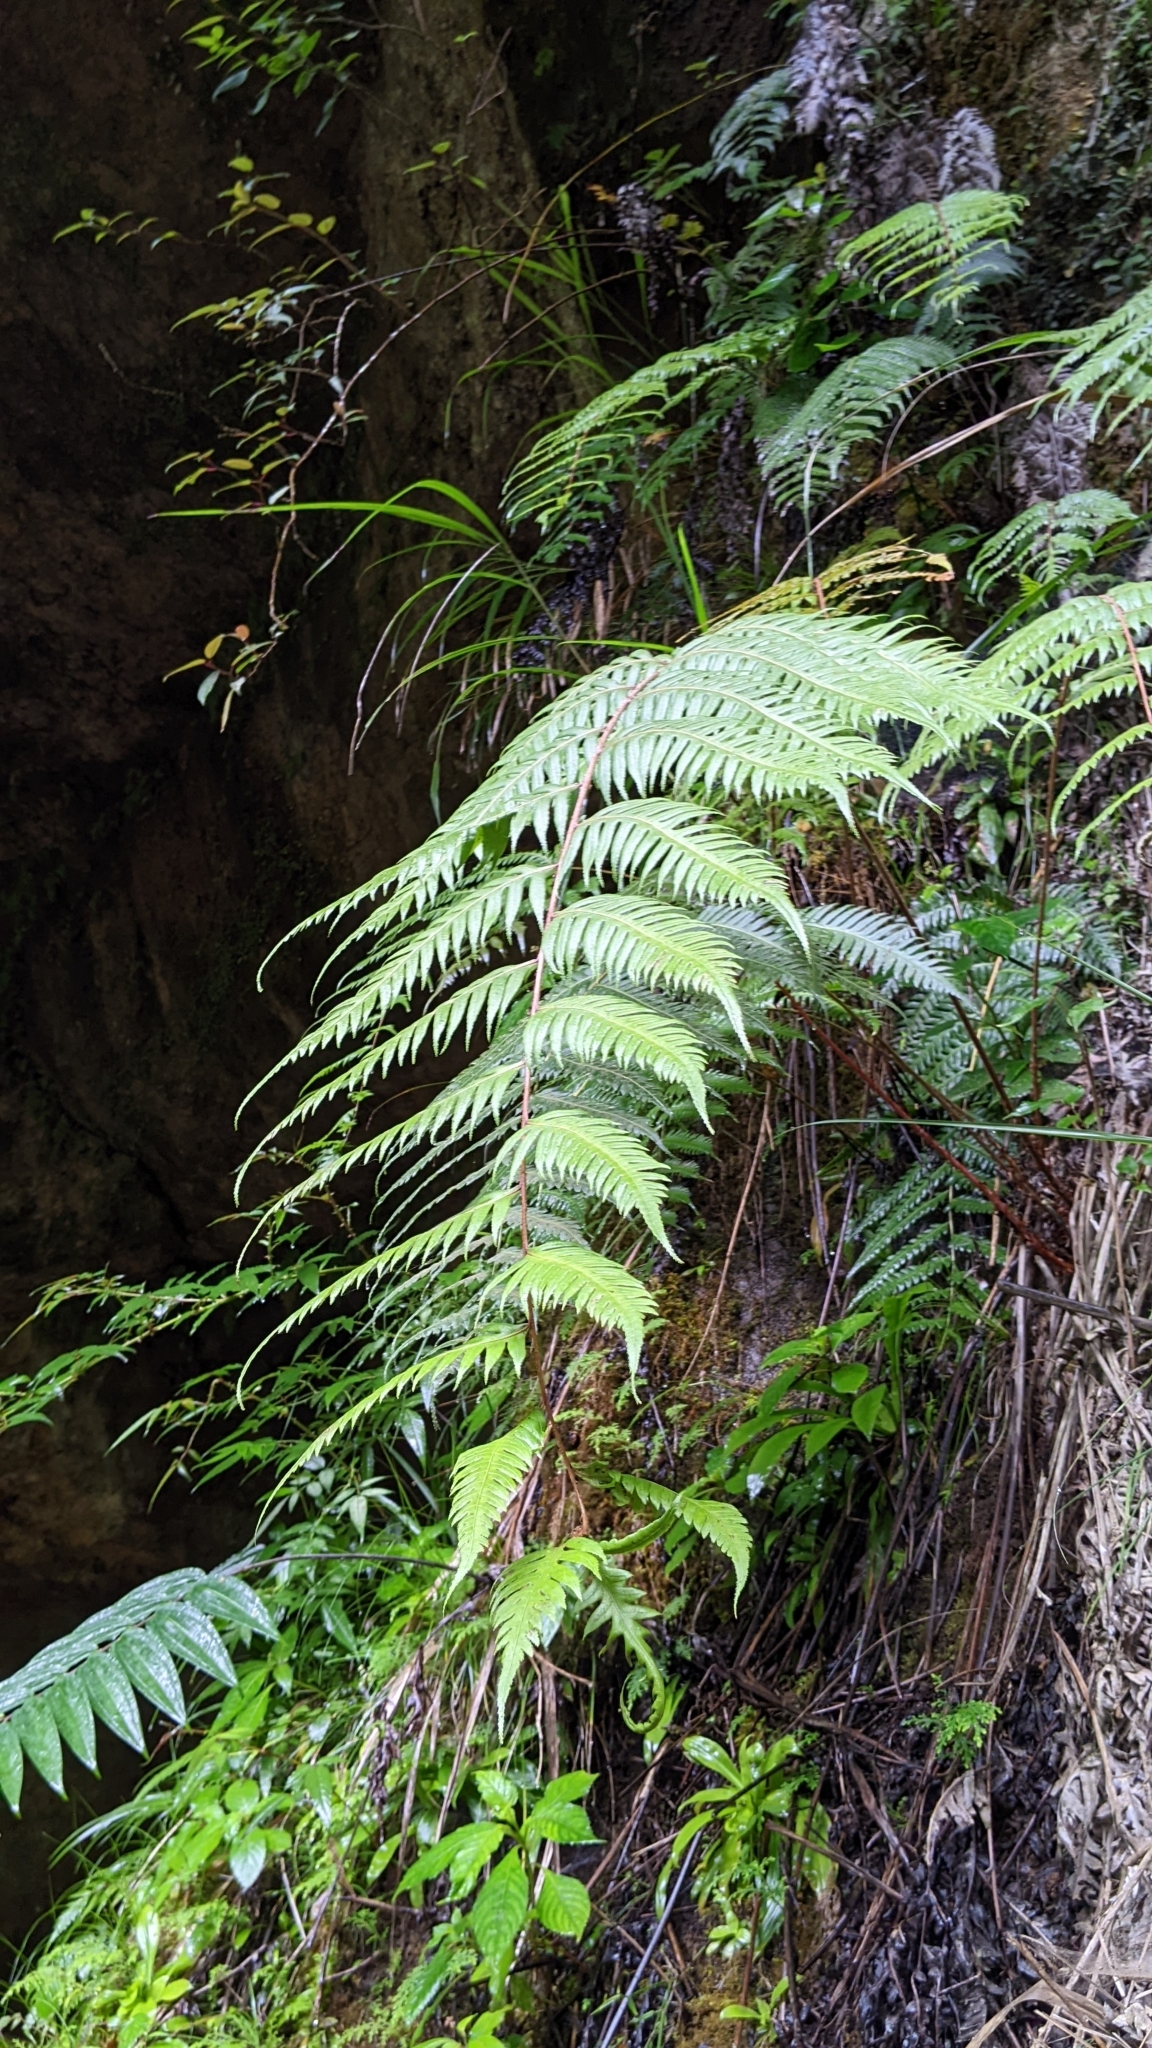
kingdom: Plantae
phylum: Tracheophyta
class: Polypodiopsida
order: Polypodiales
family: Blechnaceae
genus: Woodwardia
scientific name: Woodwardia unigemmata
